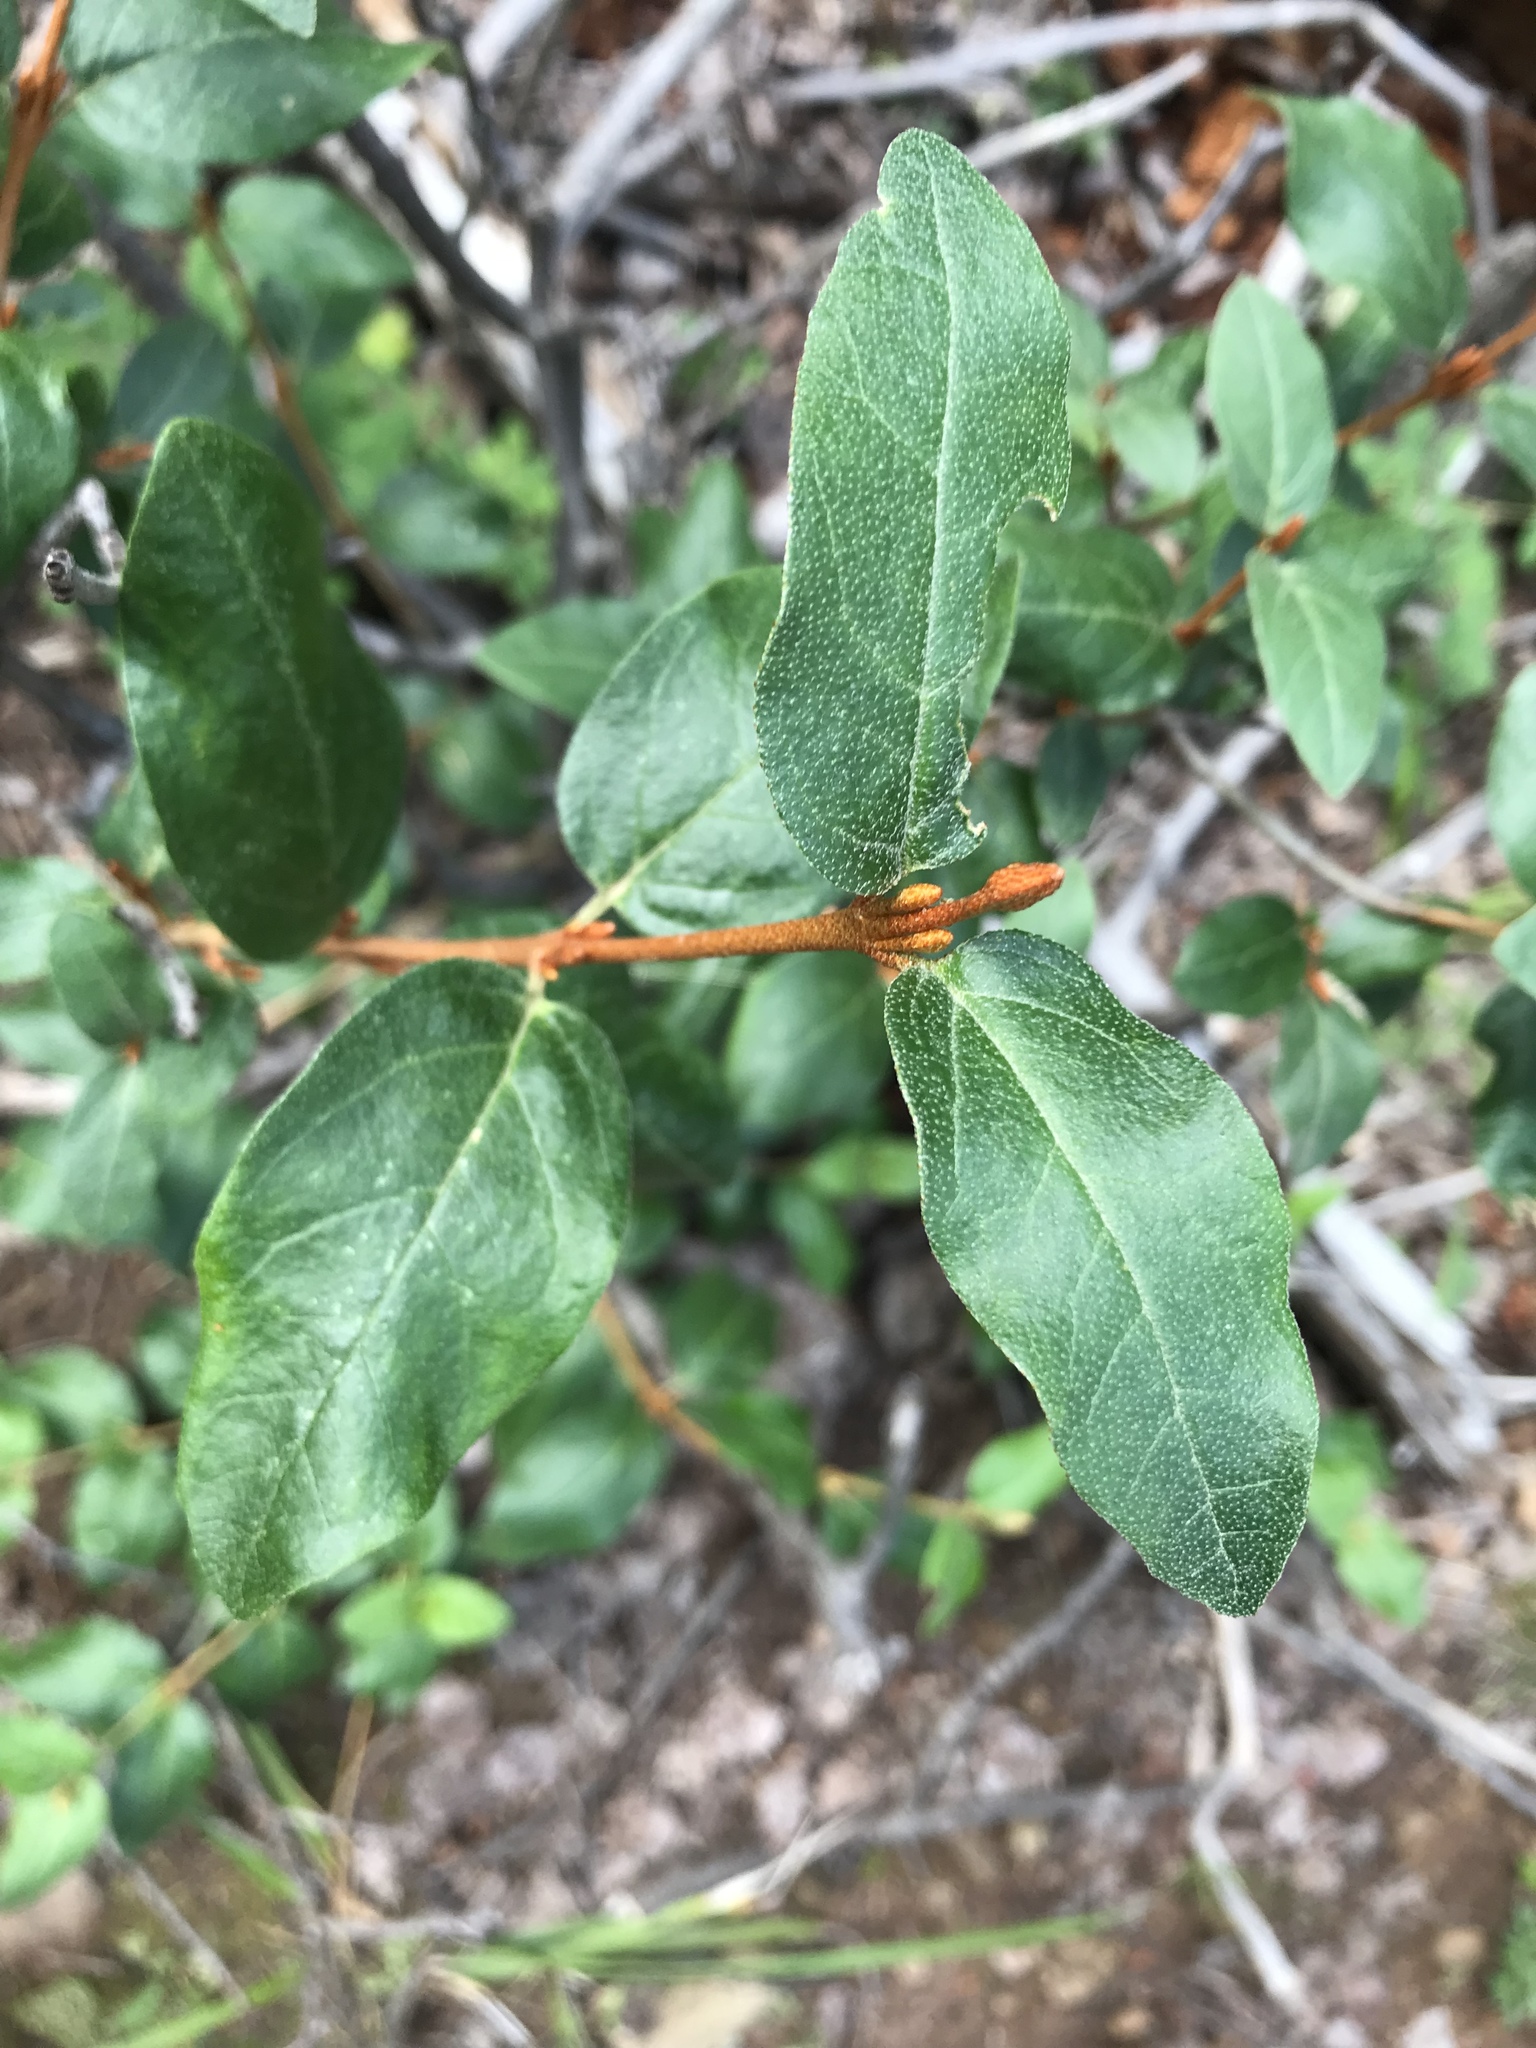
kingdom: Plantae
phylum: Tracheophyta
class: Magnoliopsida
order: Rosales
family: Elaeagnaceae
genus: Shepherdia
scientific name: Shepherdia canadensis
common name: Soapberry
